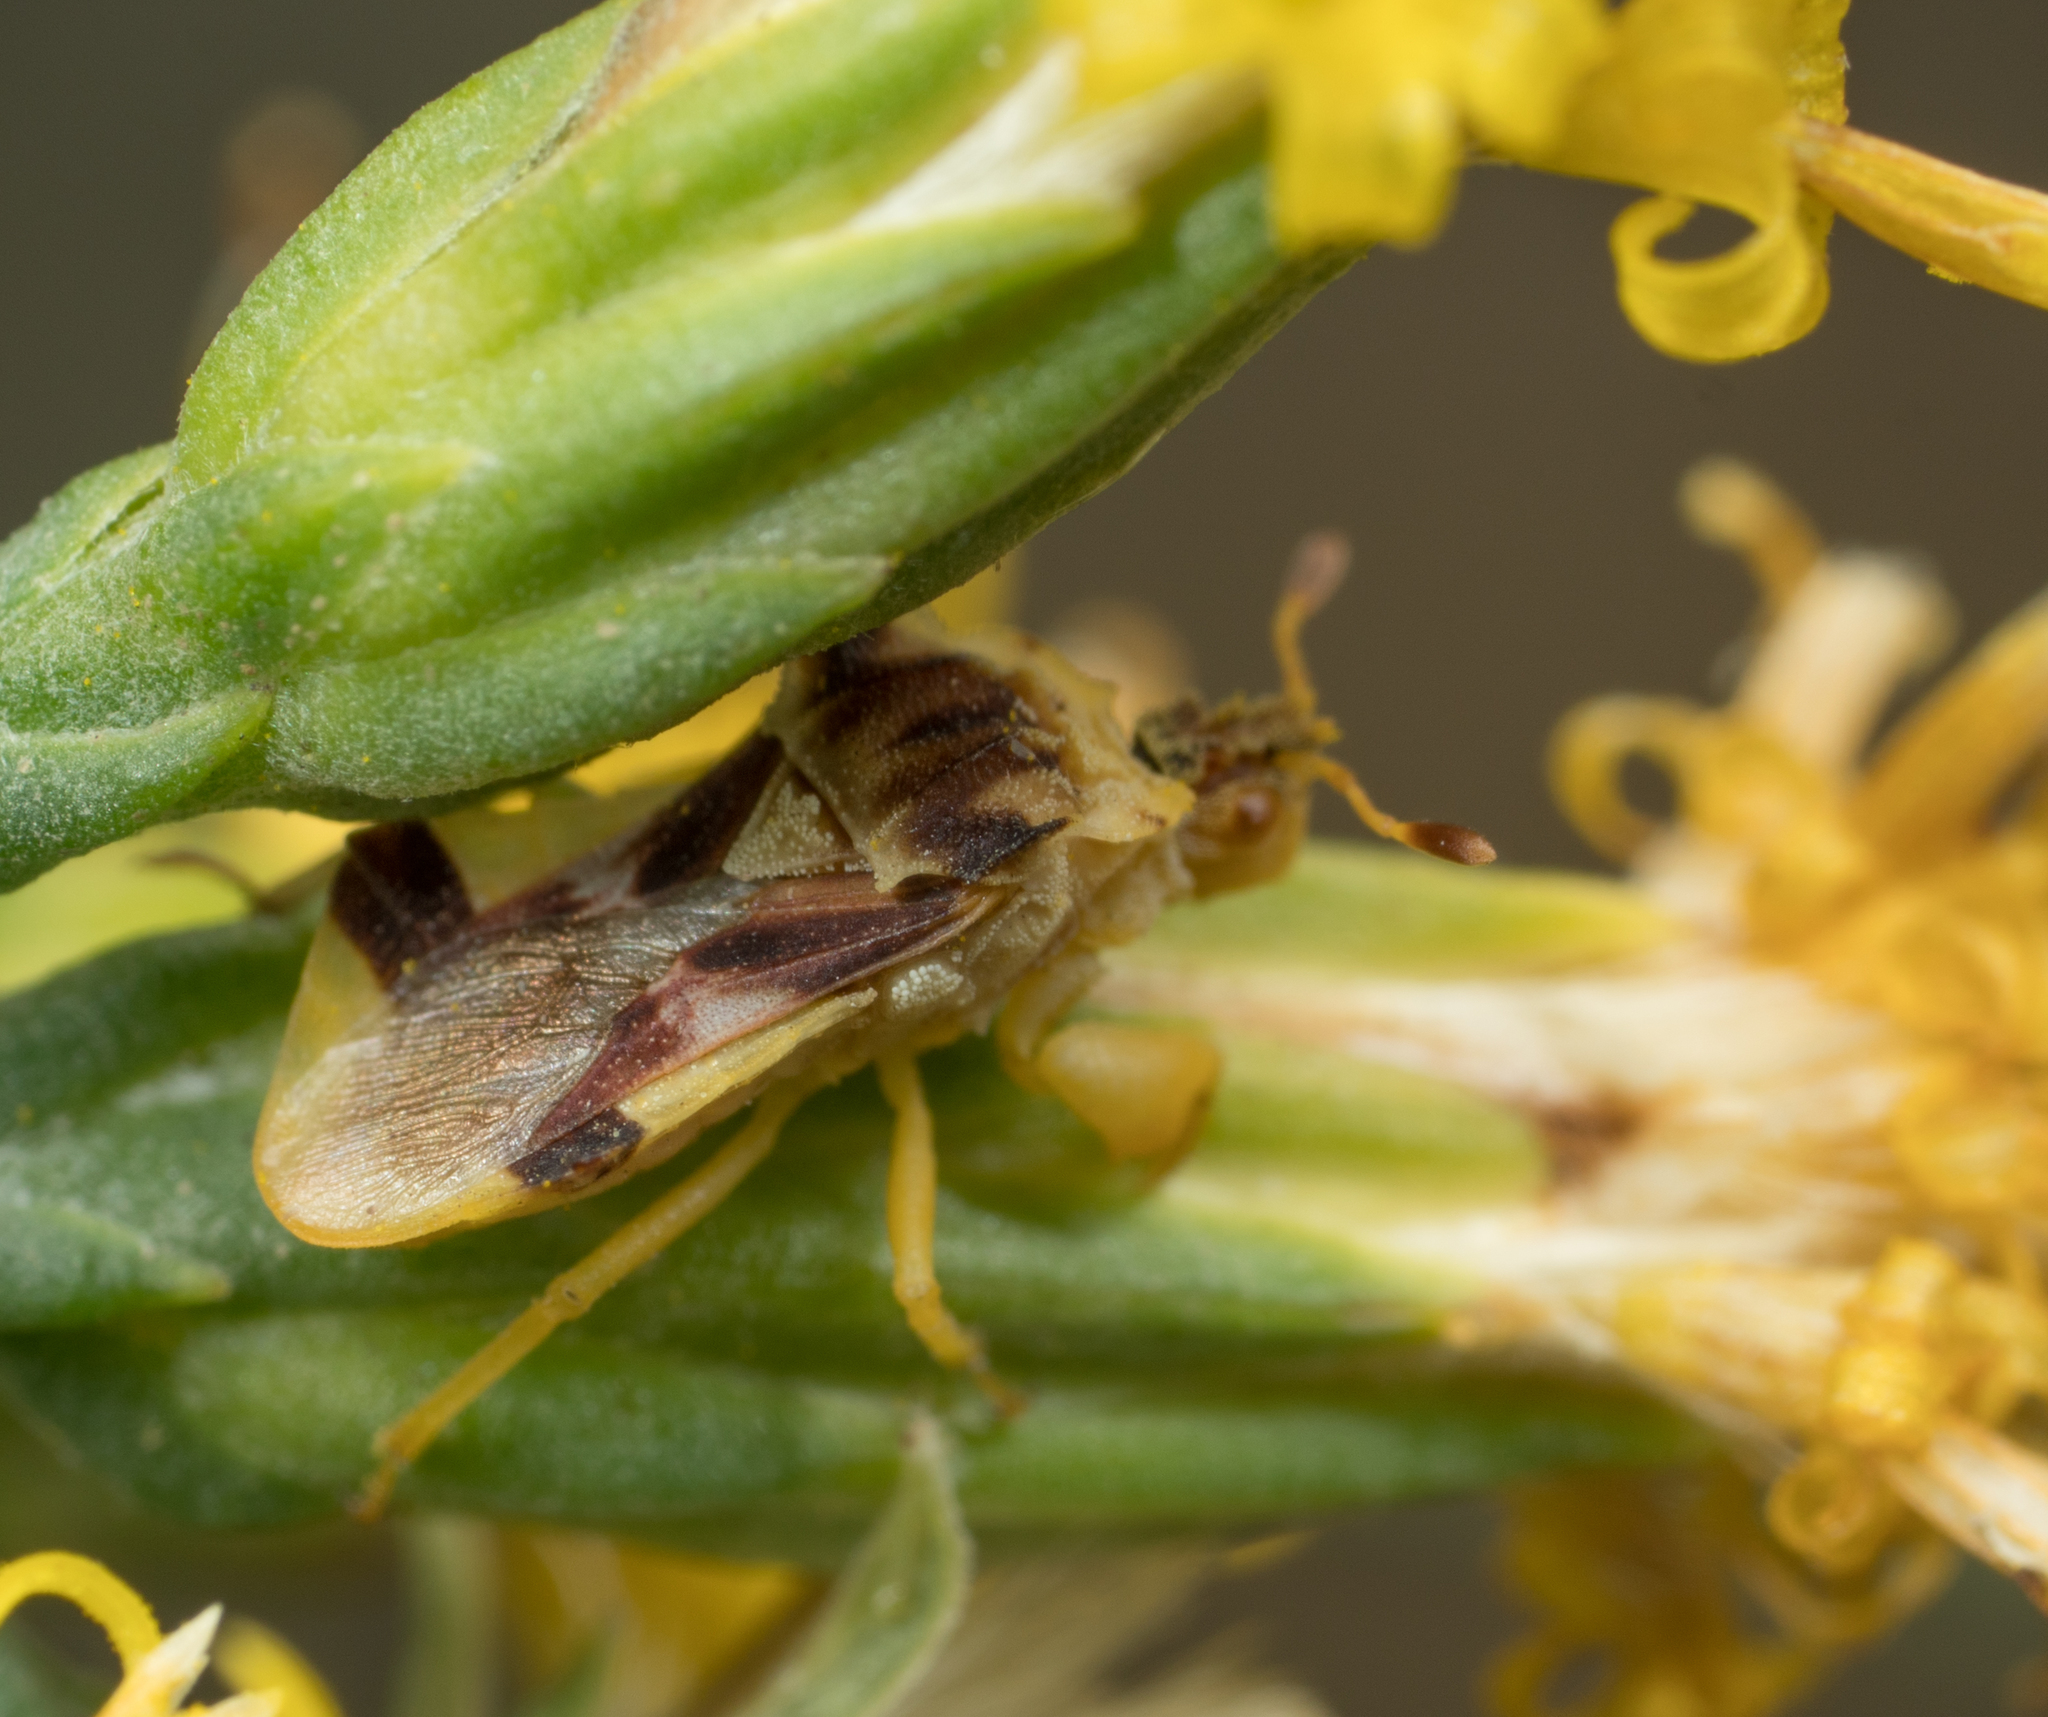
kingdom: Animalia
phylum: Arthropoda
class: Insecta
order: Hemiptera
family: Reduviidae
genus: Phymata
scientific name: Phymata pacifica
